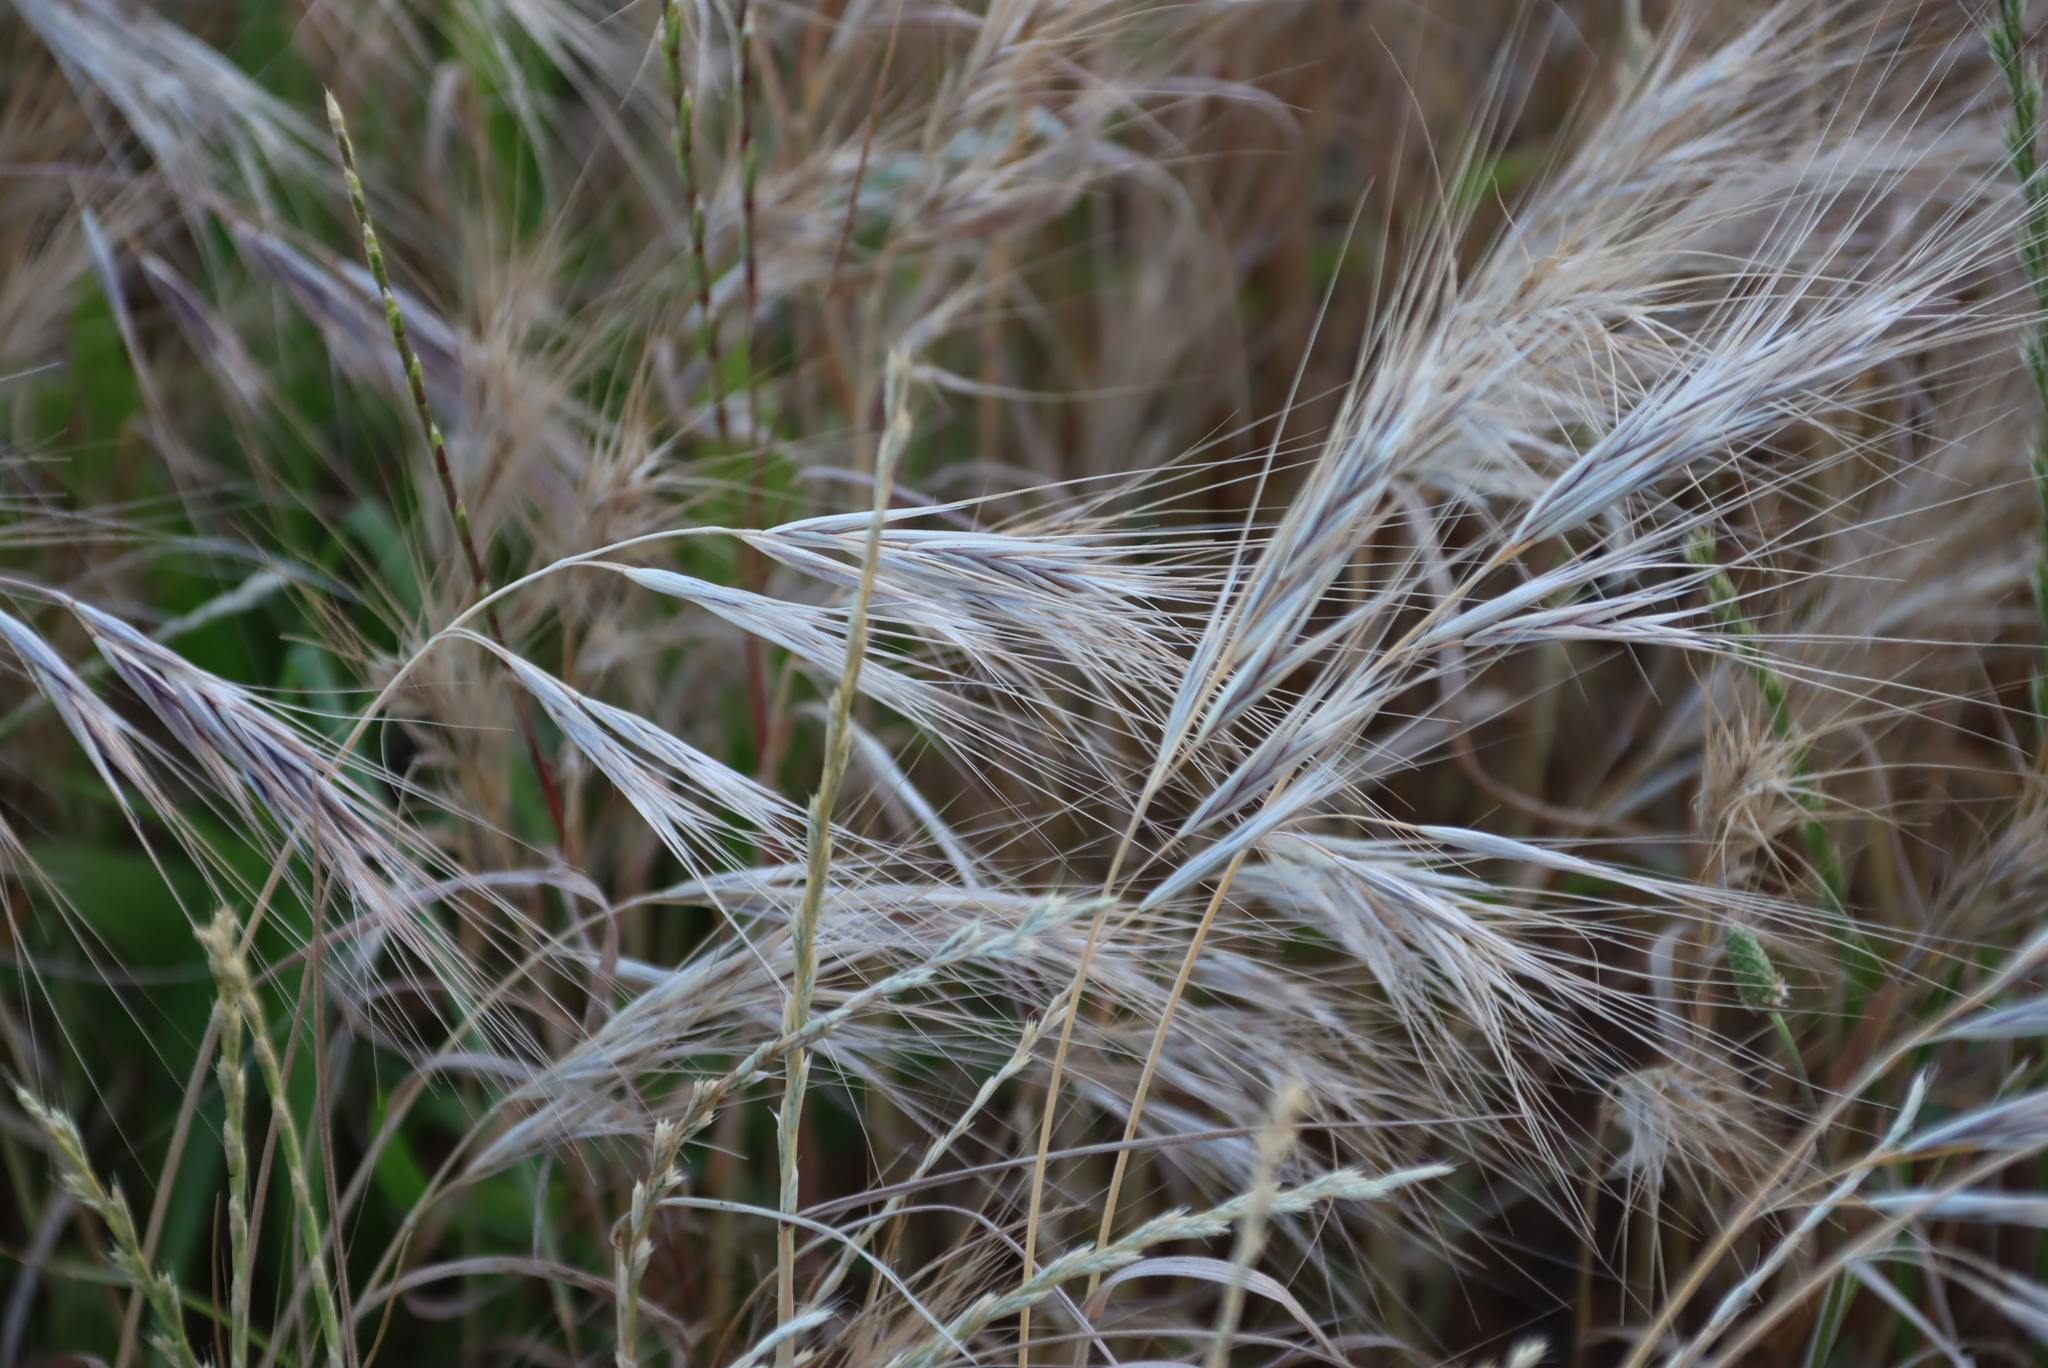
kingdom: Plantae
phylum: Tracheophyta
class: Liliopsida
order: Poales
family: Poaceae
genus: Bromus
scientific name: Bromus diandrus
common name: Ripgut brome
